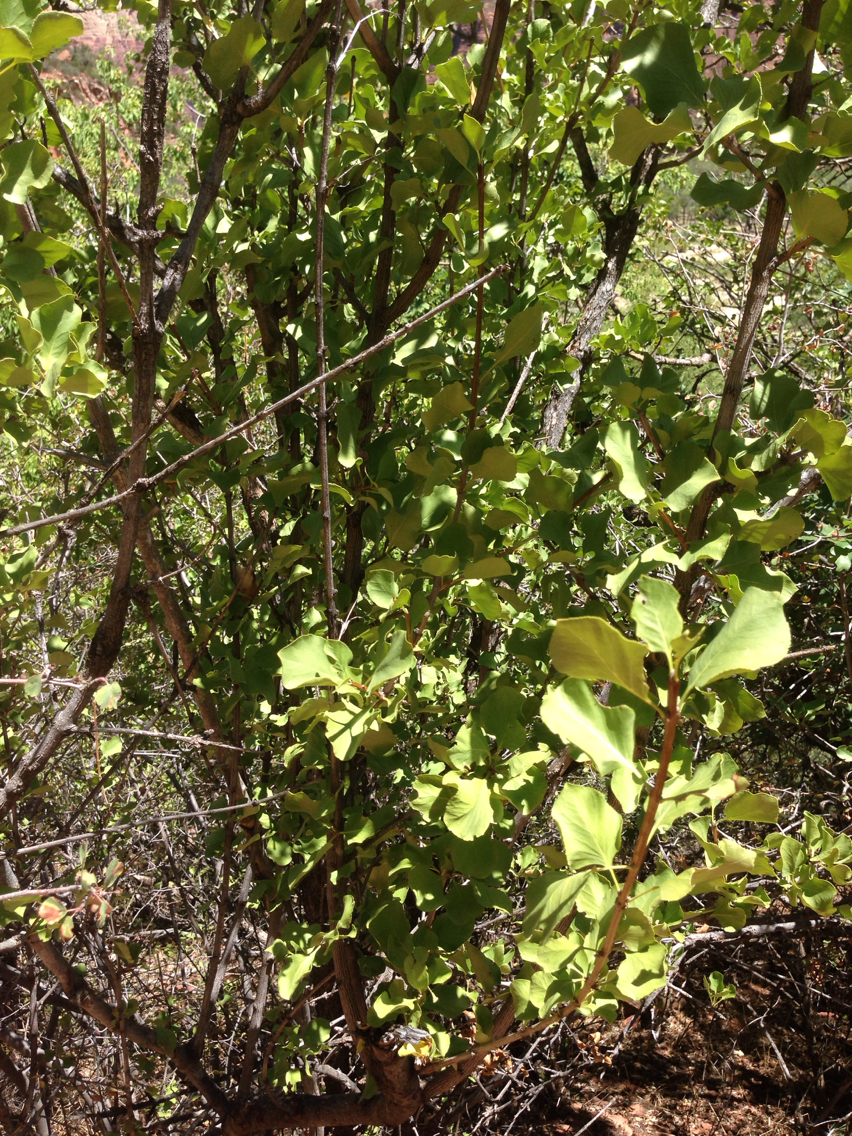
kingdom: Plantae
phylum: Tracheophyta
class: Magnoliopsida
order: Lamiales
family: Oleaceae
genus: Fraxinus
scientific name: Fraxinus anomala
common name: Utah ash
